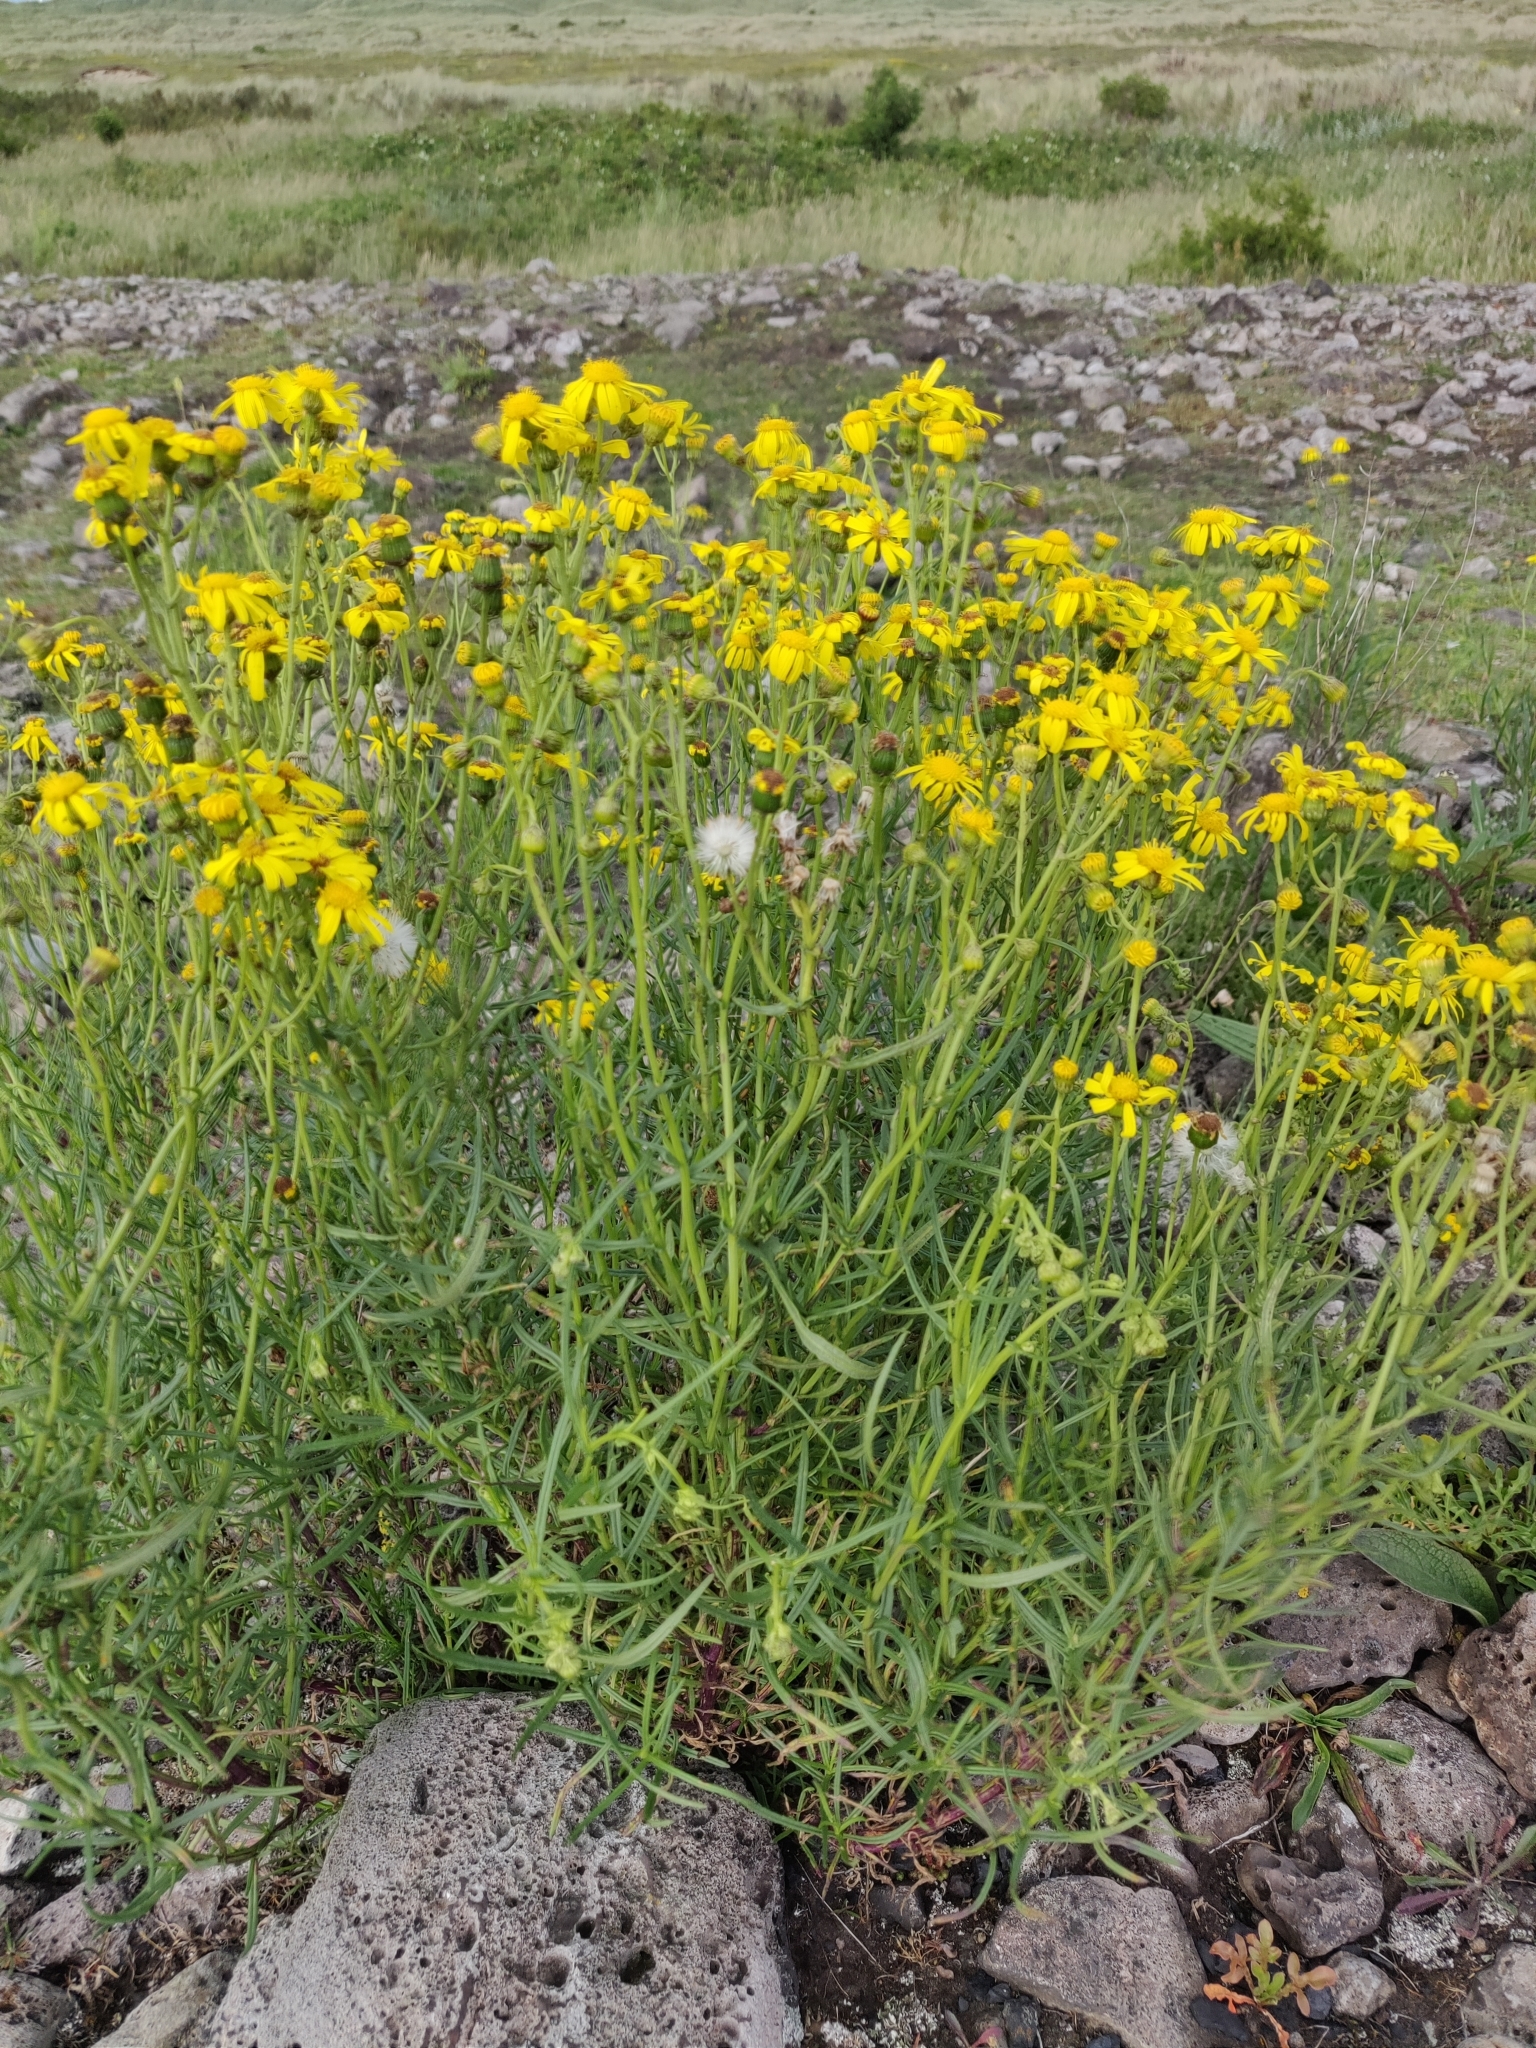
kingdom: Plantae
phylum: Tracheophyta
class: Magnoliopsida
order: Asterales
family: Asteraceae
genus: Senecio
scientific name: Senecio inaequidens
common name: Narrow-leaved ragwort
